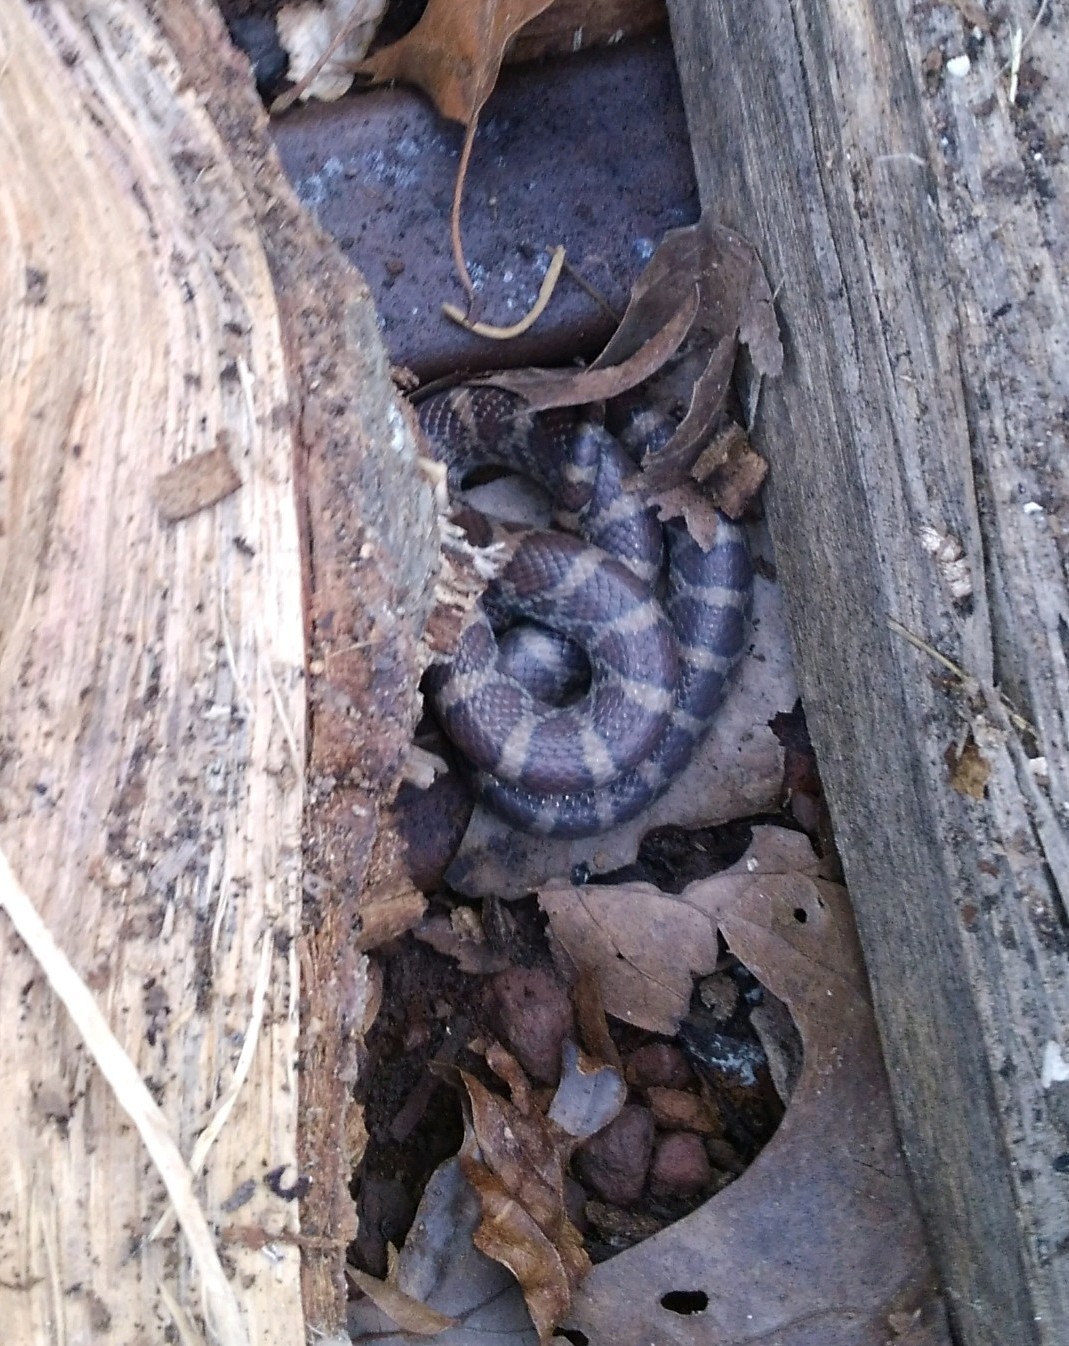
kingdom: Animalia
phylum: Chordata
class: Squamata
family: Colubridae
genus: Lampropeltis
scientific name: Lampropeltis triangulum
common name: Eastern milksnake
